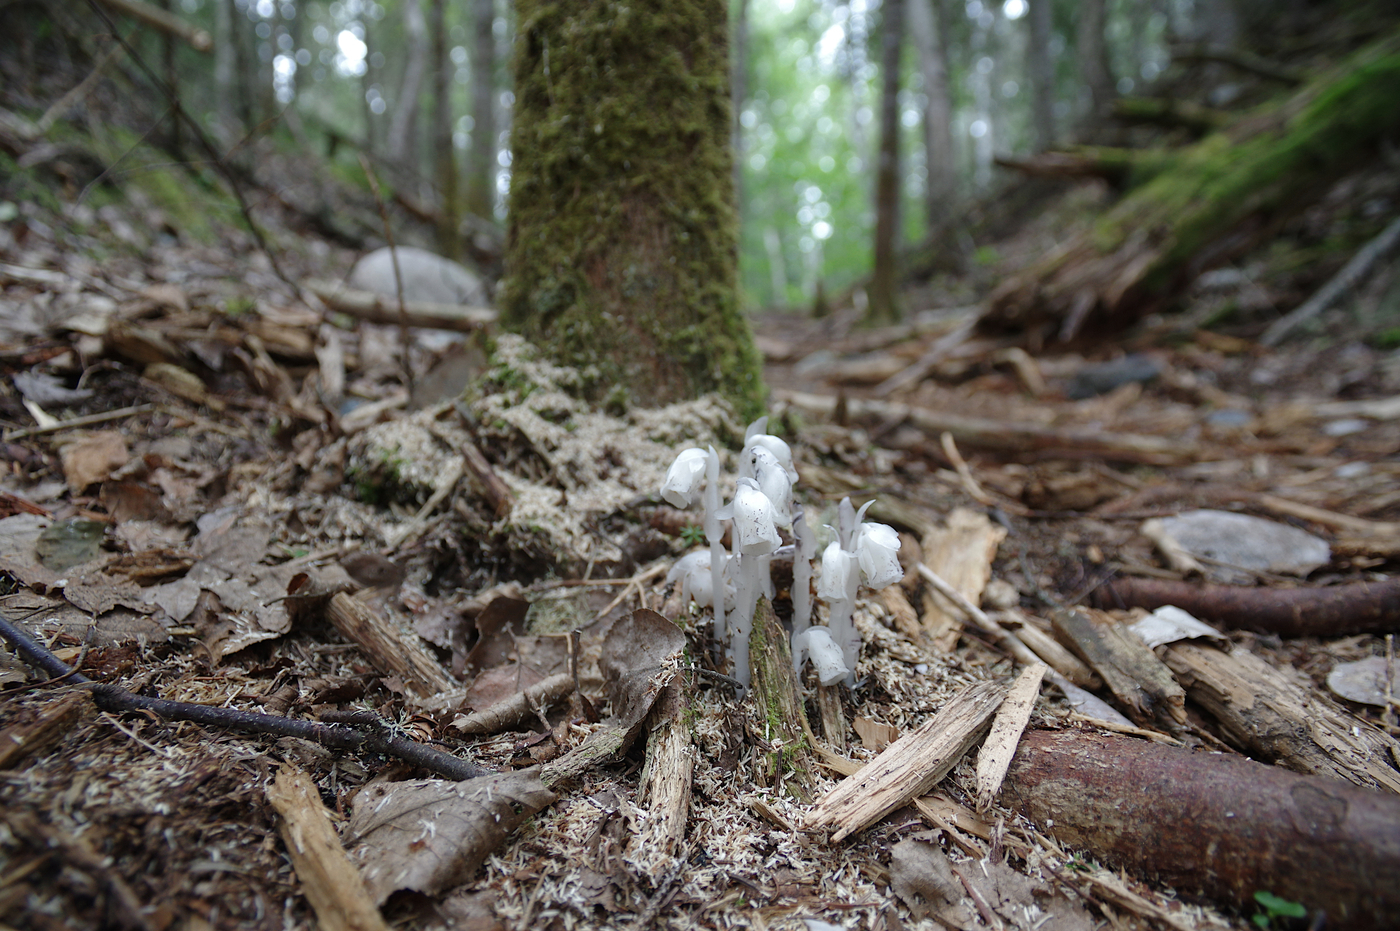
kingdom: Plantae
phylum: Tracheophyta
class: Magnoliopsida
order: Ericales
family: Ericaceae
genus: Monotropa
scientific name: Monotropa uniflora
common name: Convulsion root
